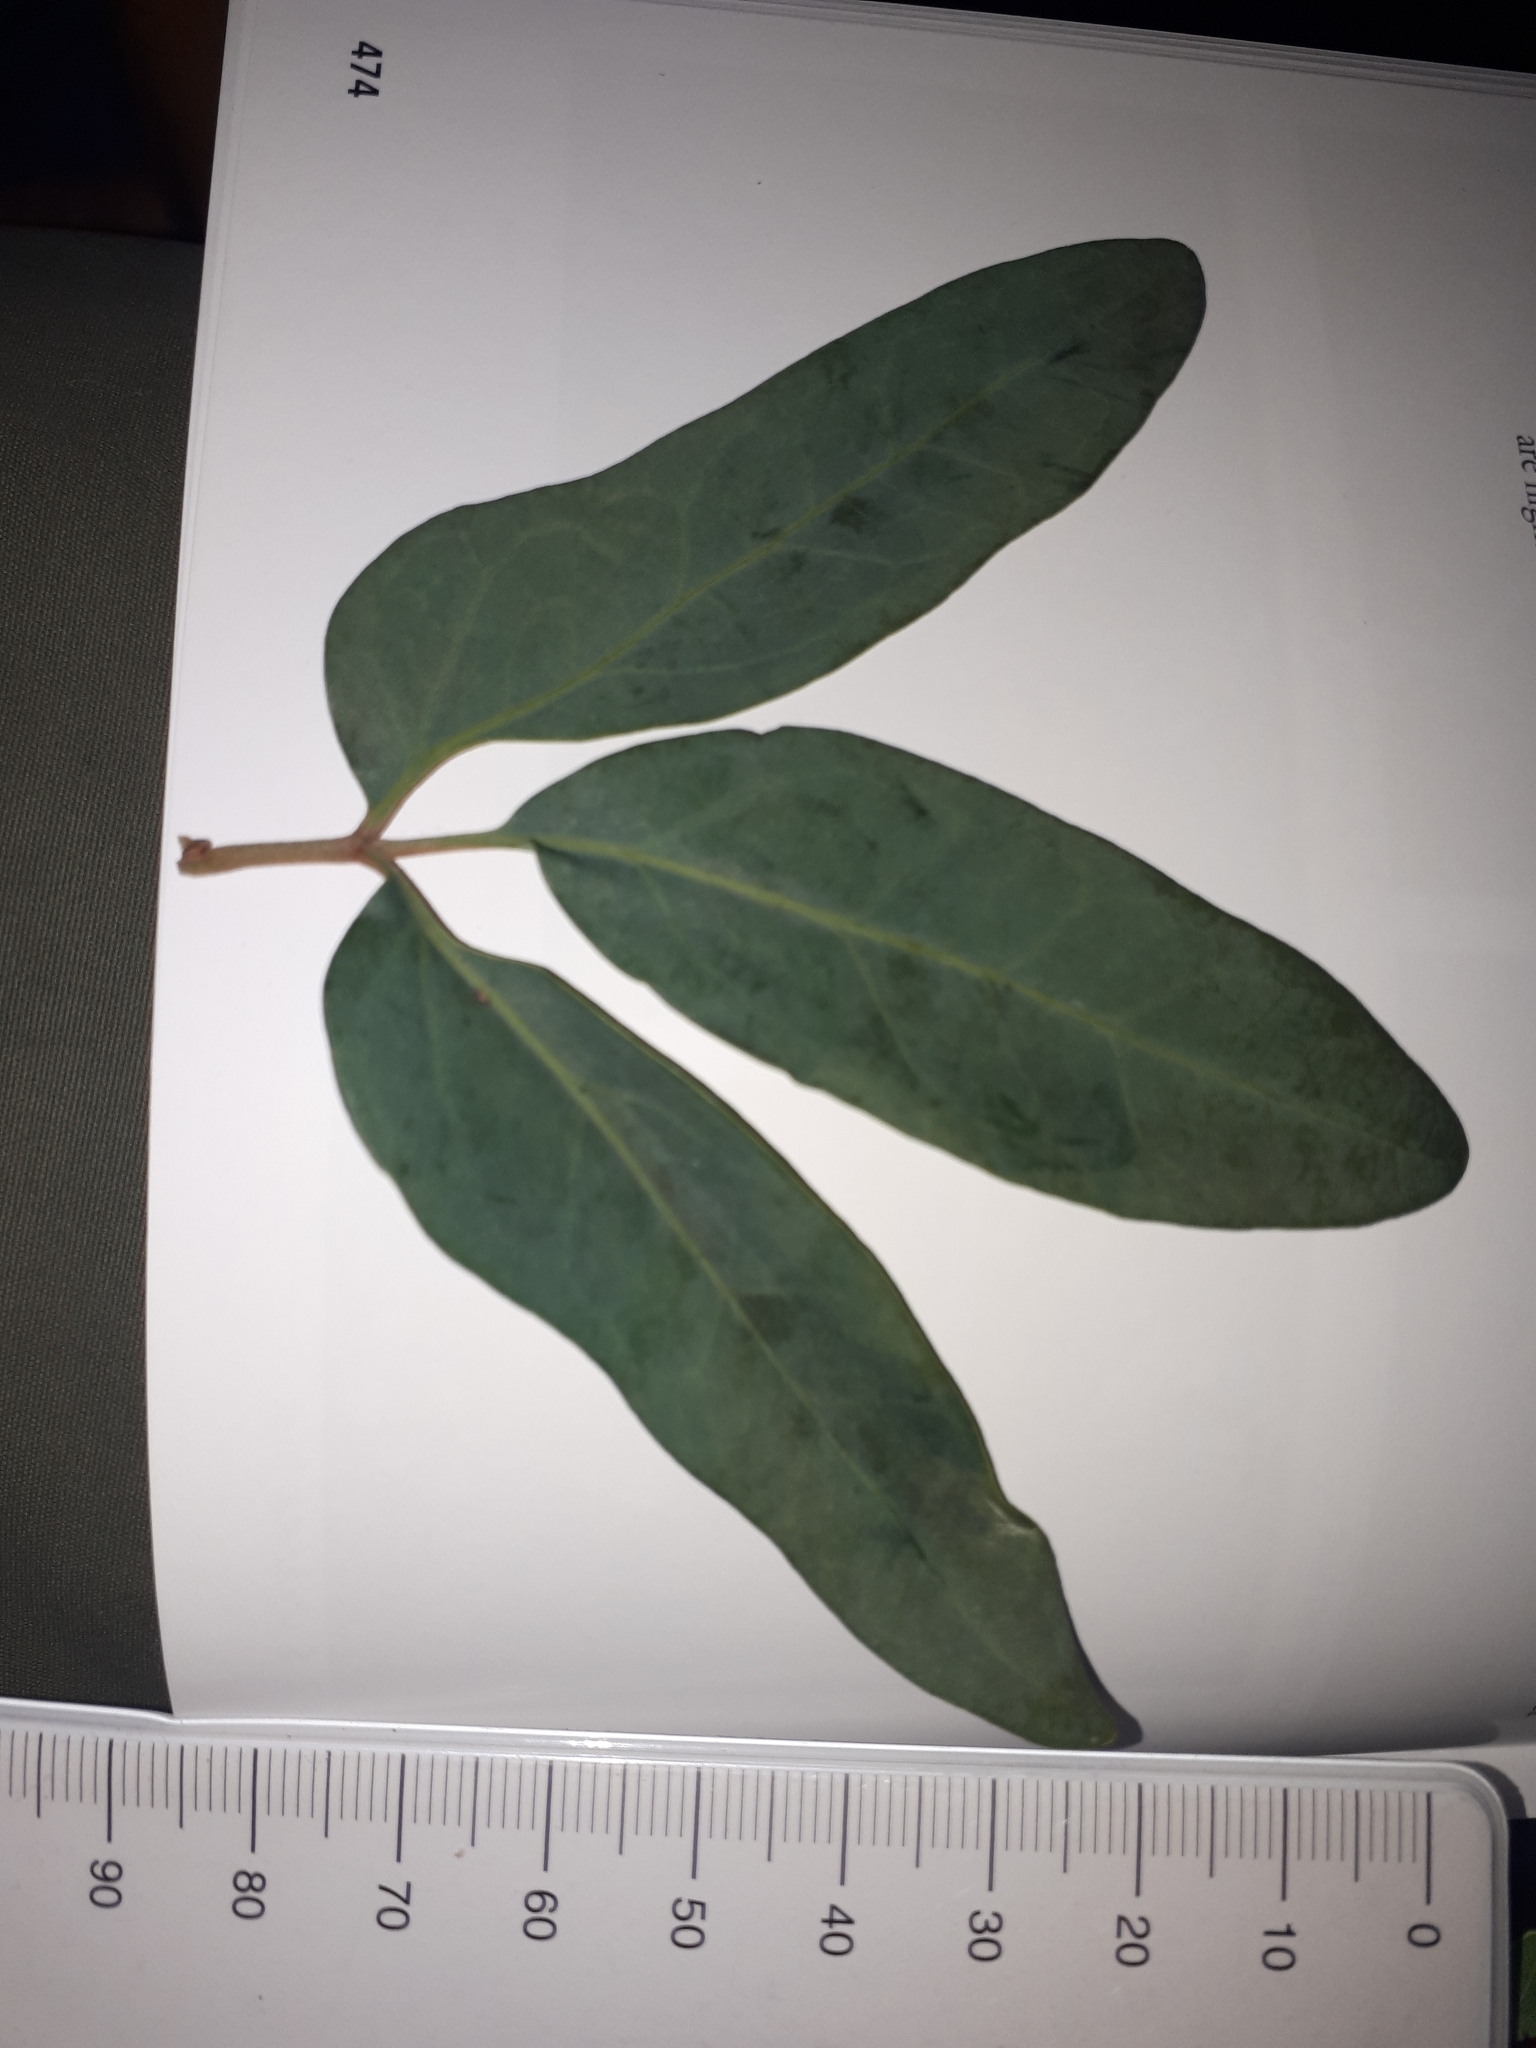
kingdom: Plantae
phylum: Tracheophyta
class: Magnoliopsida
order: Vitales
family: Vitaceae
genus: Rhoicissus
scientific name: Rhoicissus revoilii
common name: Bushveld grape
